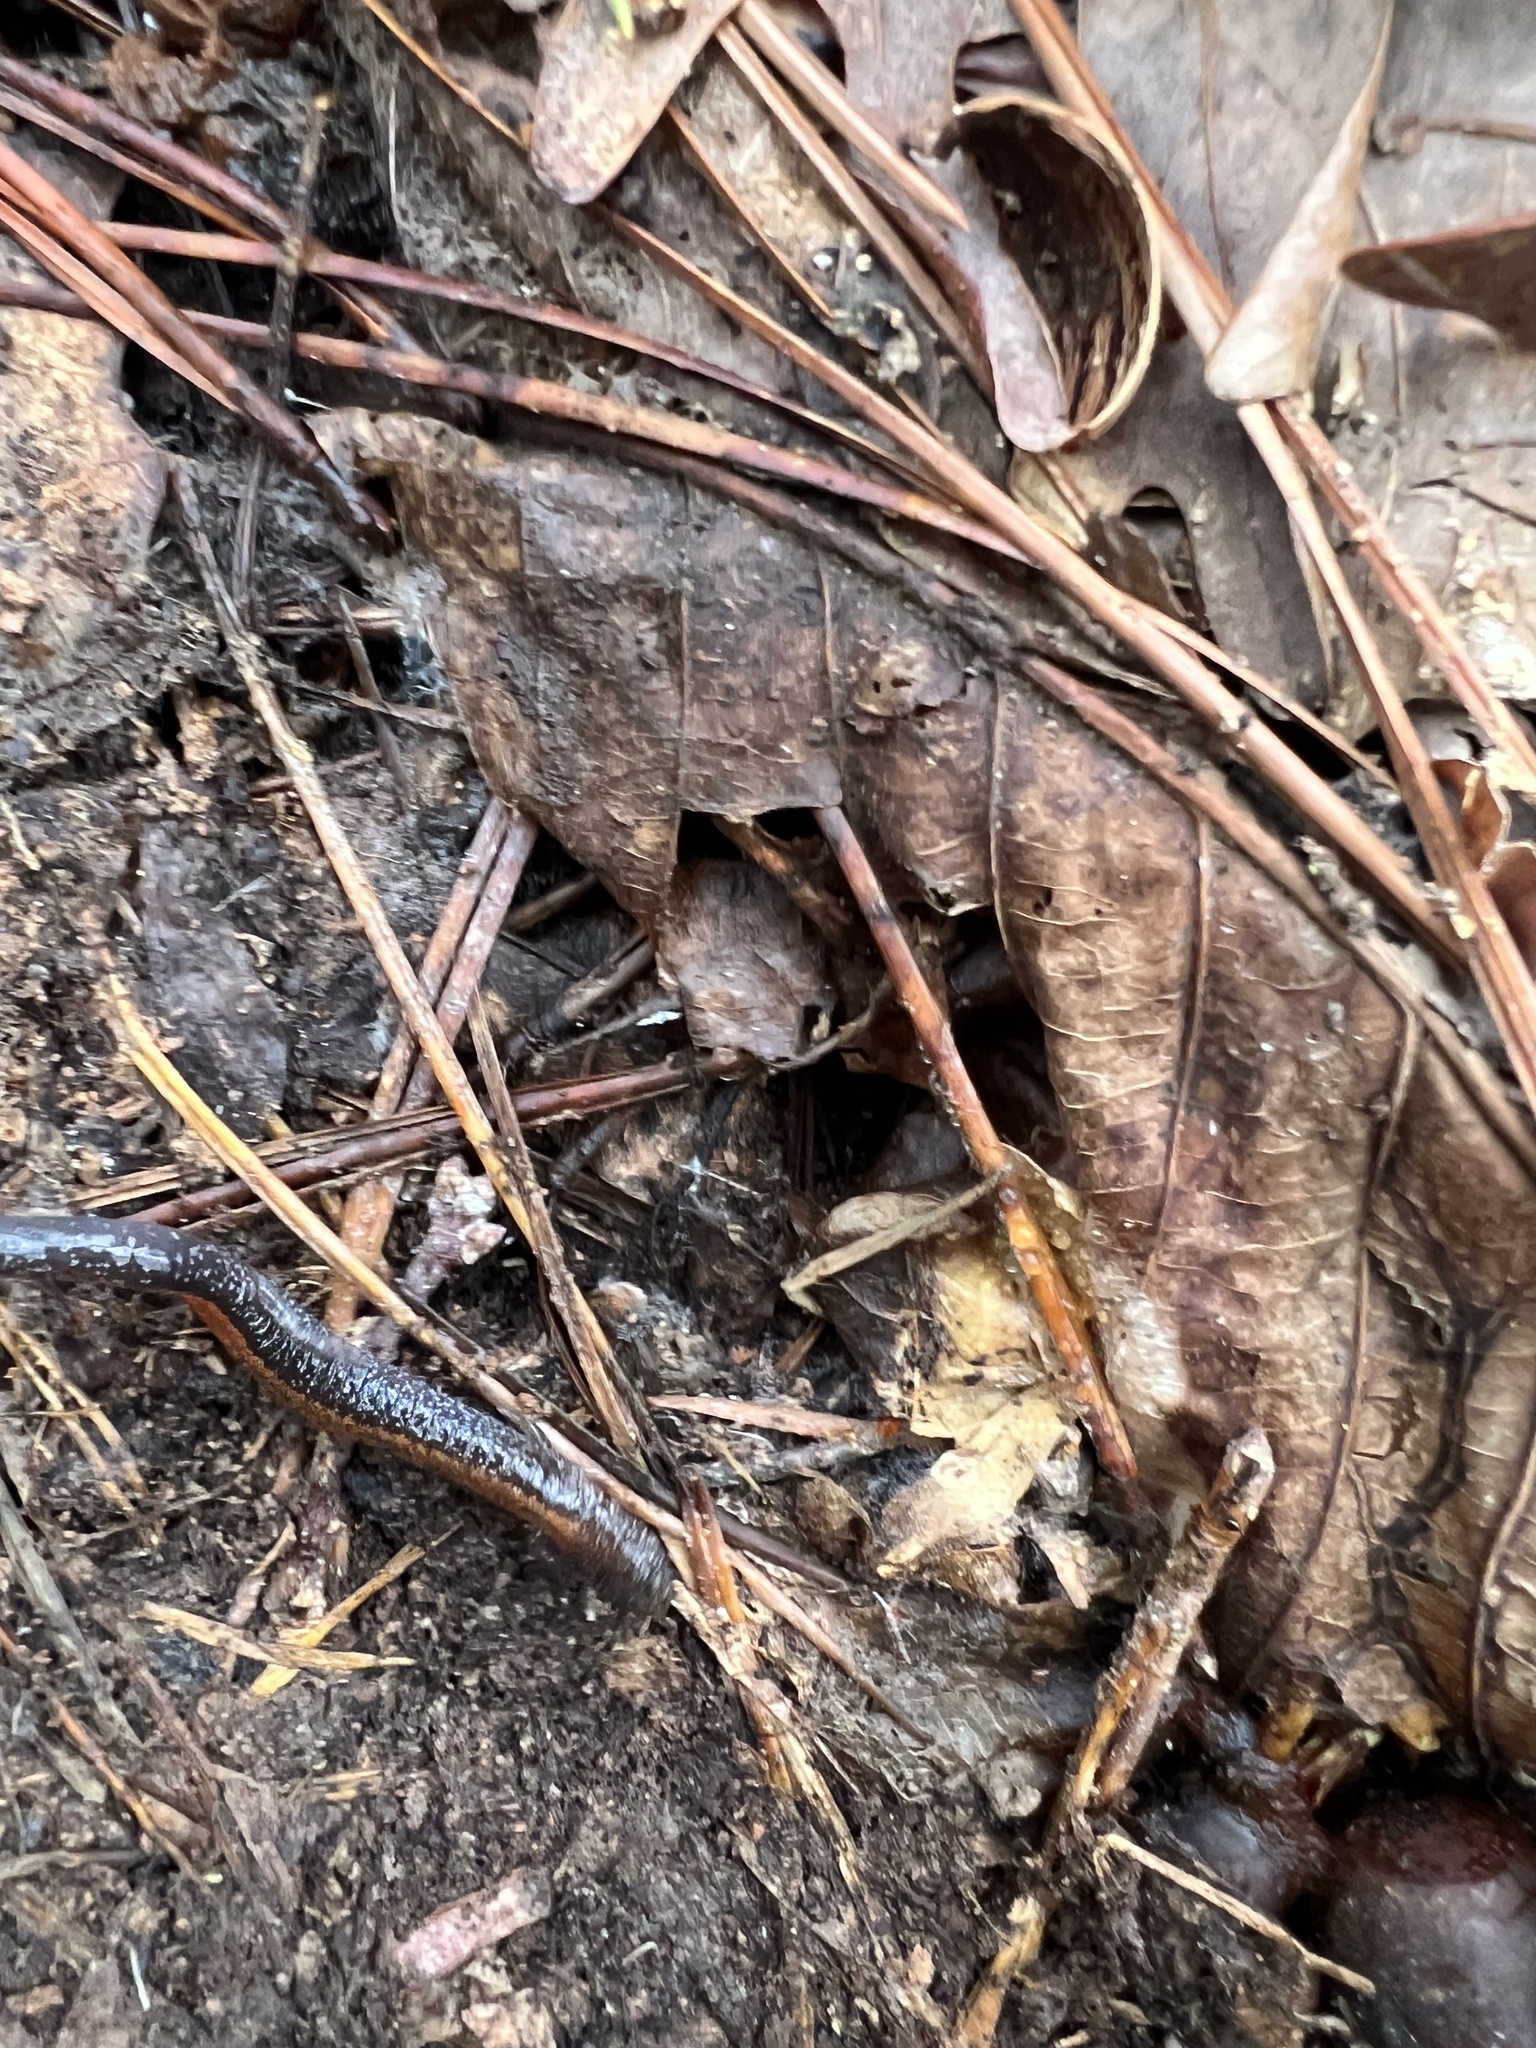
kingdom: Animalia
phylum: Chordata
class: Amphibia
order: Caudata
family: Plethodontidae
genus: Plethodon
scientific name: Plethodon cinereus
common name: Redback salamander
